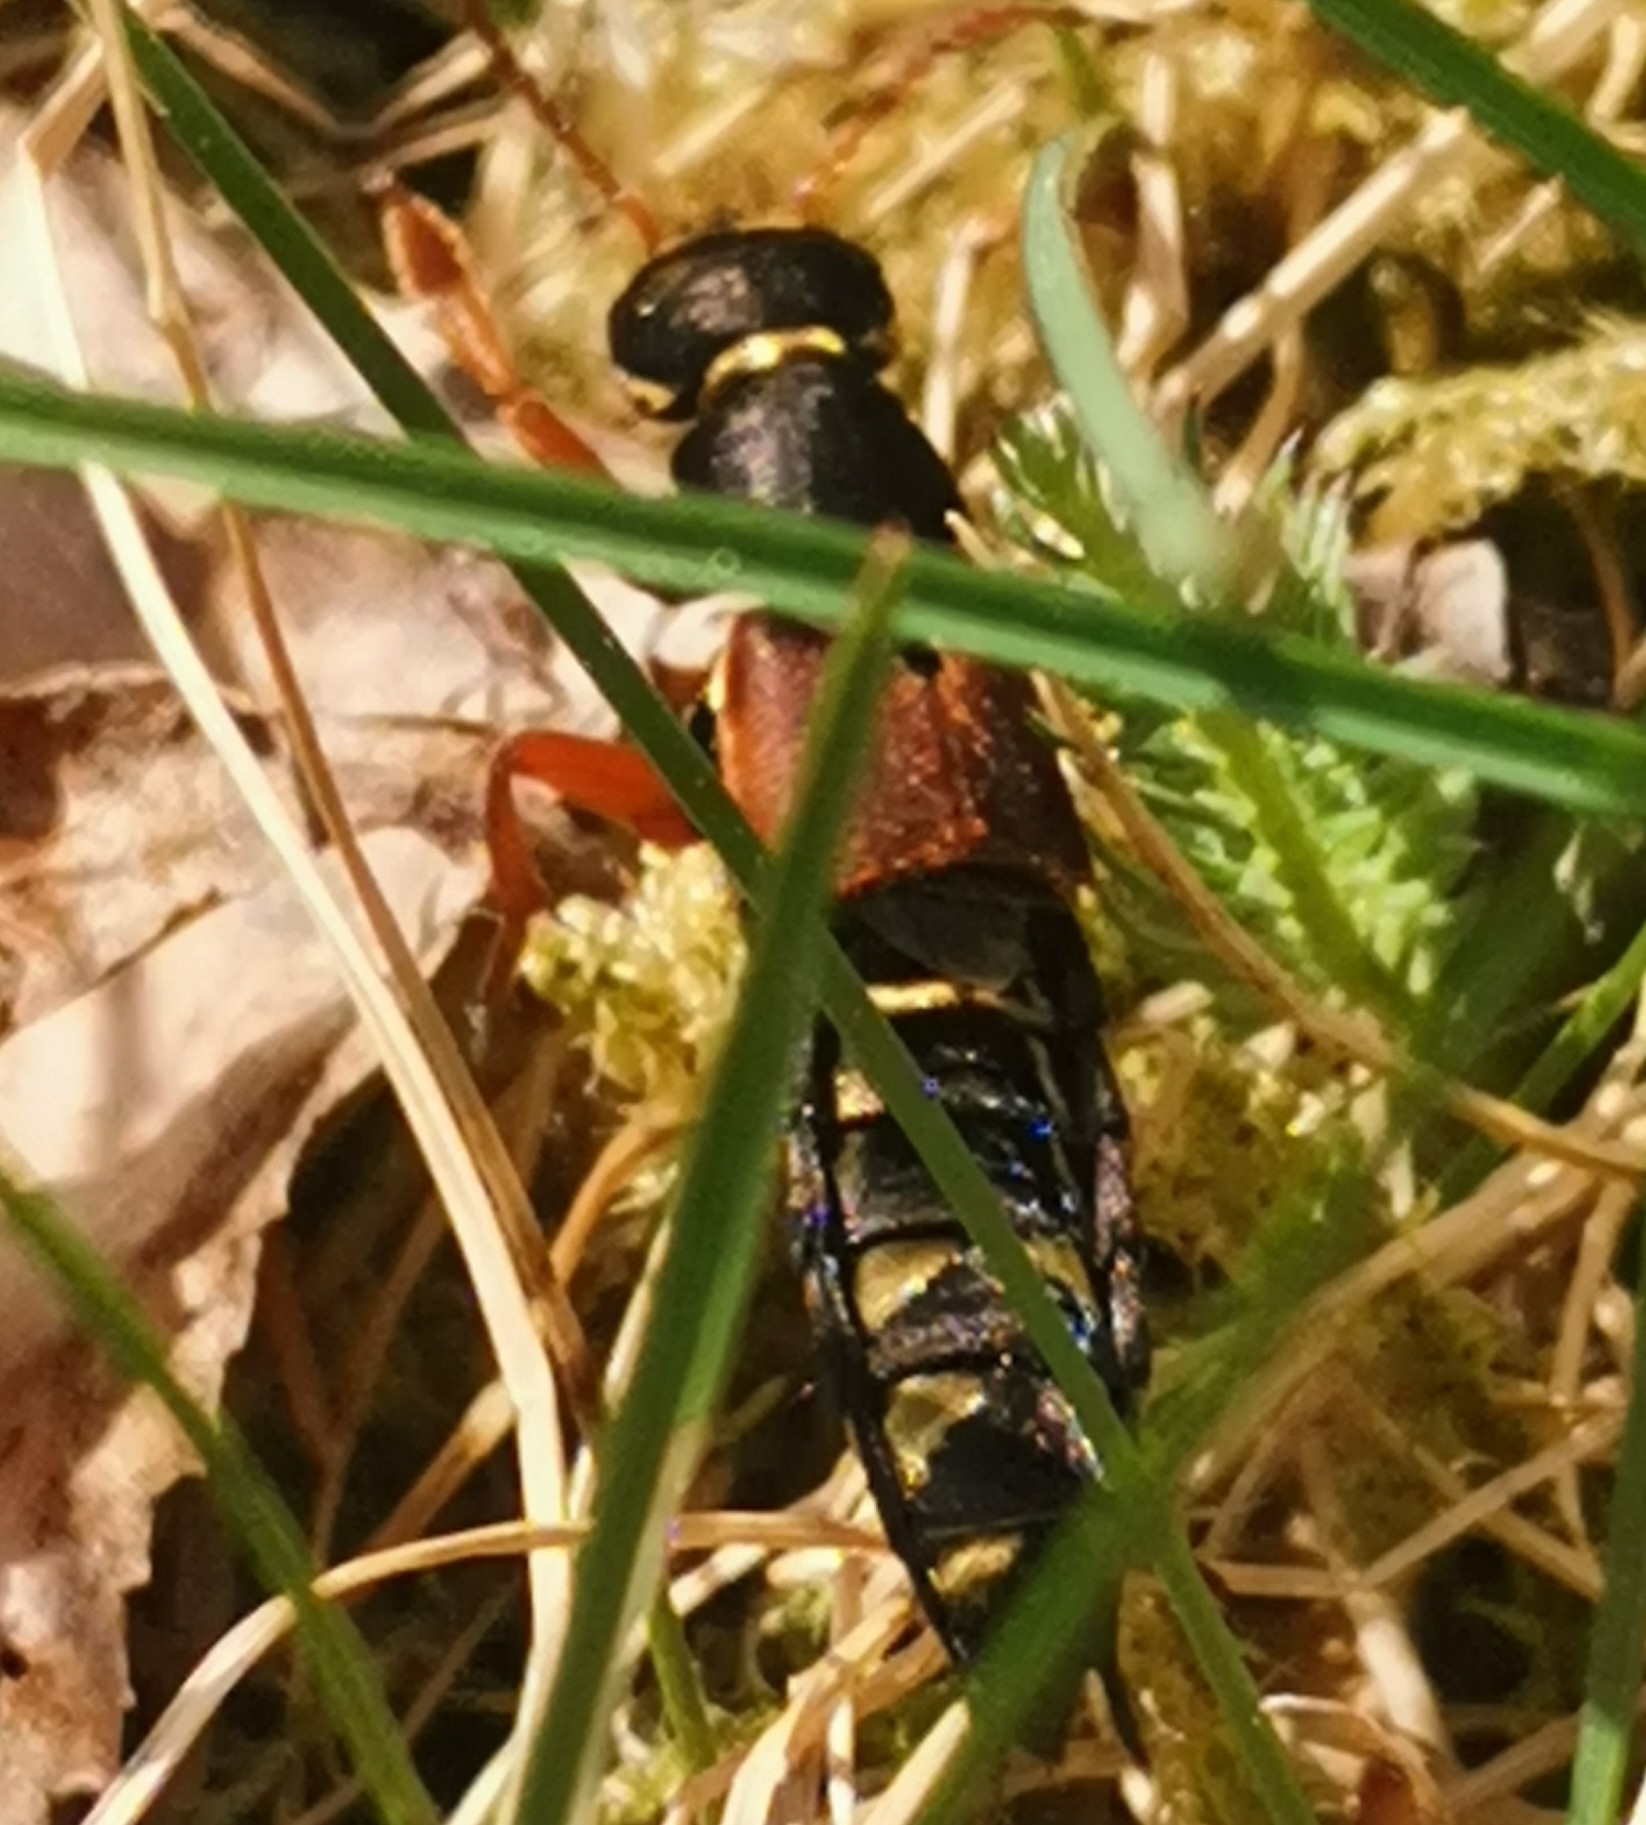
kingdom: Animalia
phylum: Arthropoda
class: Insecta
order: Coleoptera
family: Staphylinidae
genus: Staphylinus
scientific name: Staphylinus caesareus
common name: Staph beetle
